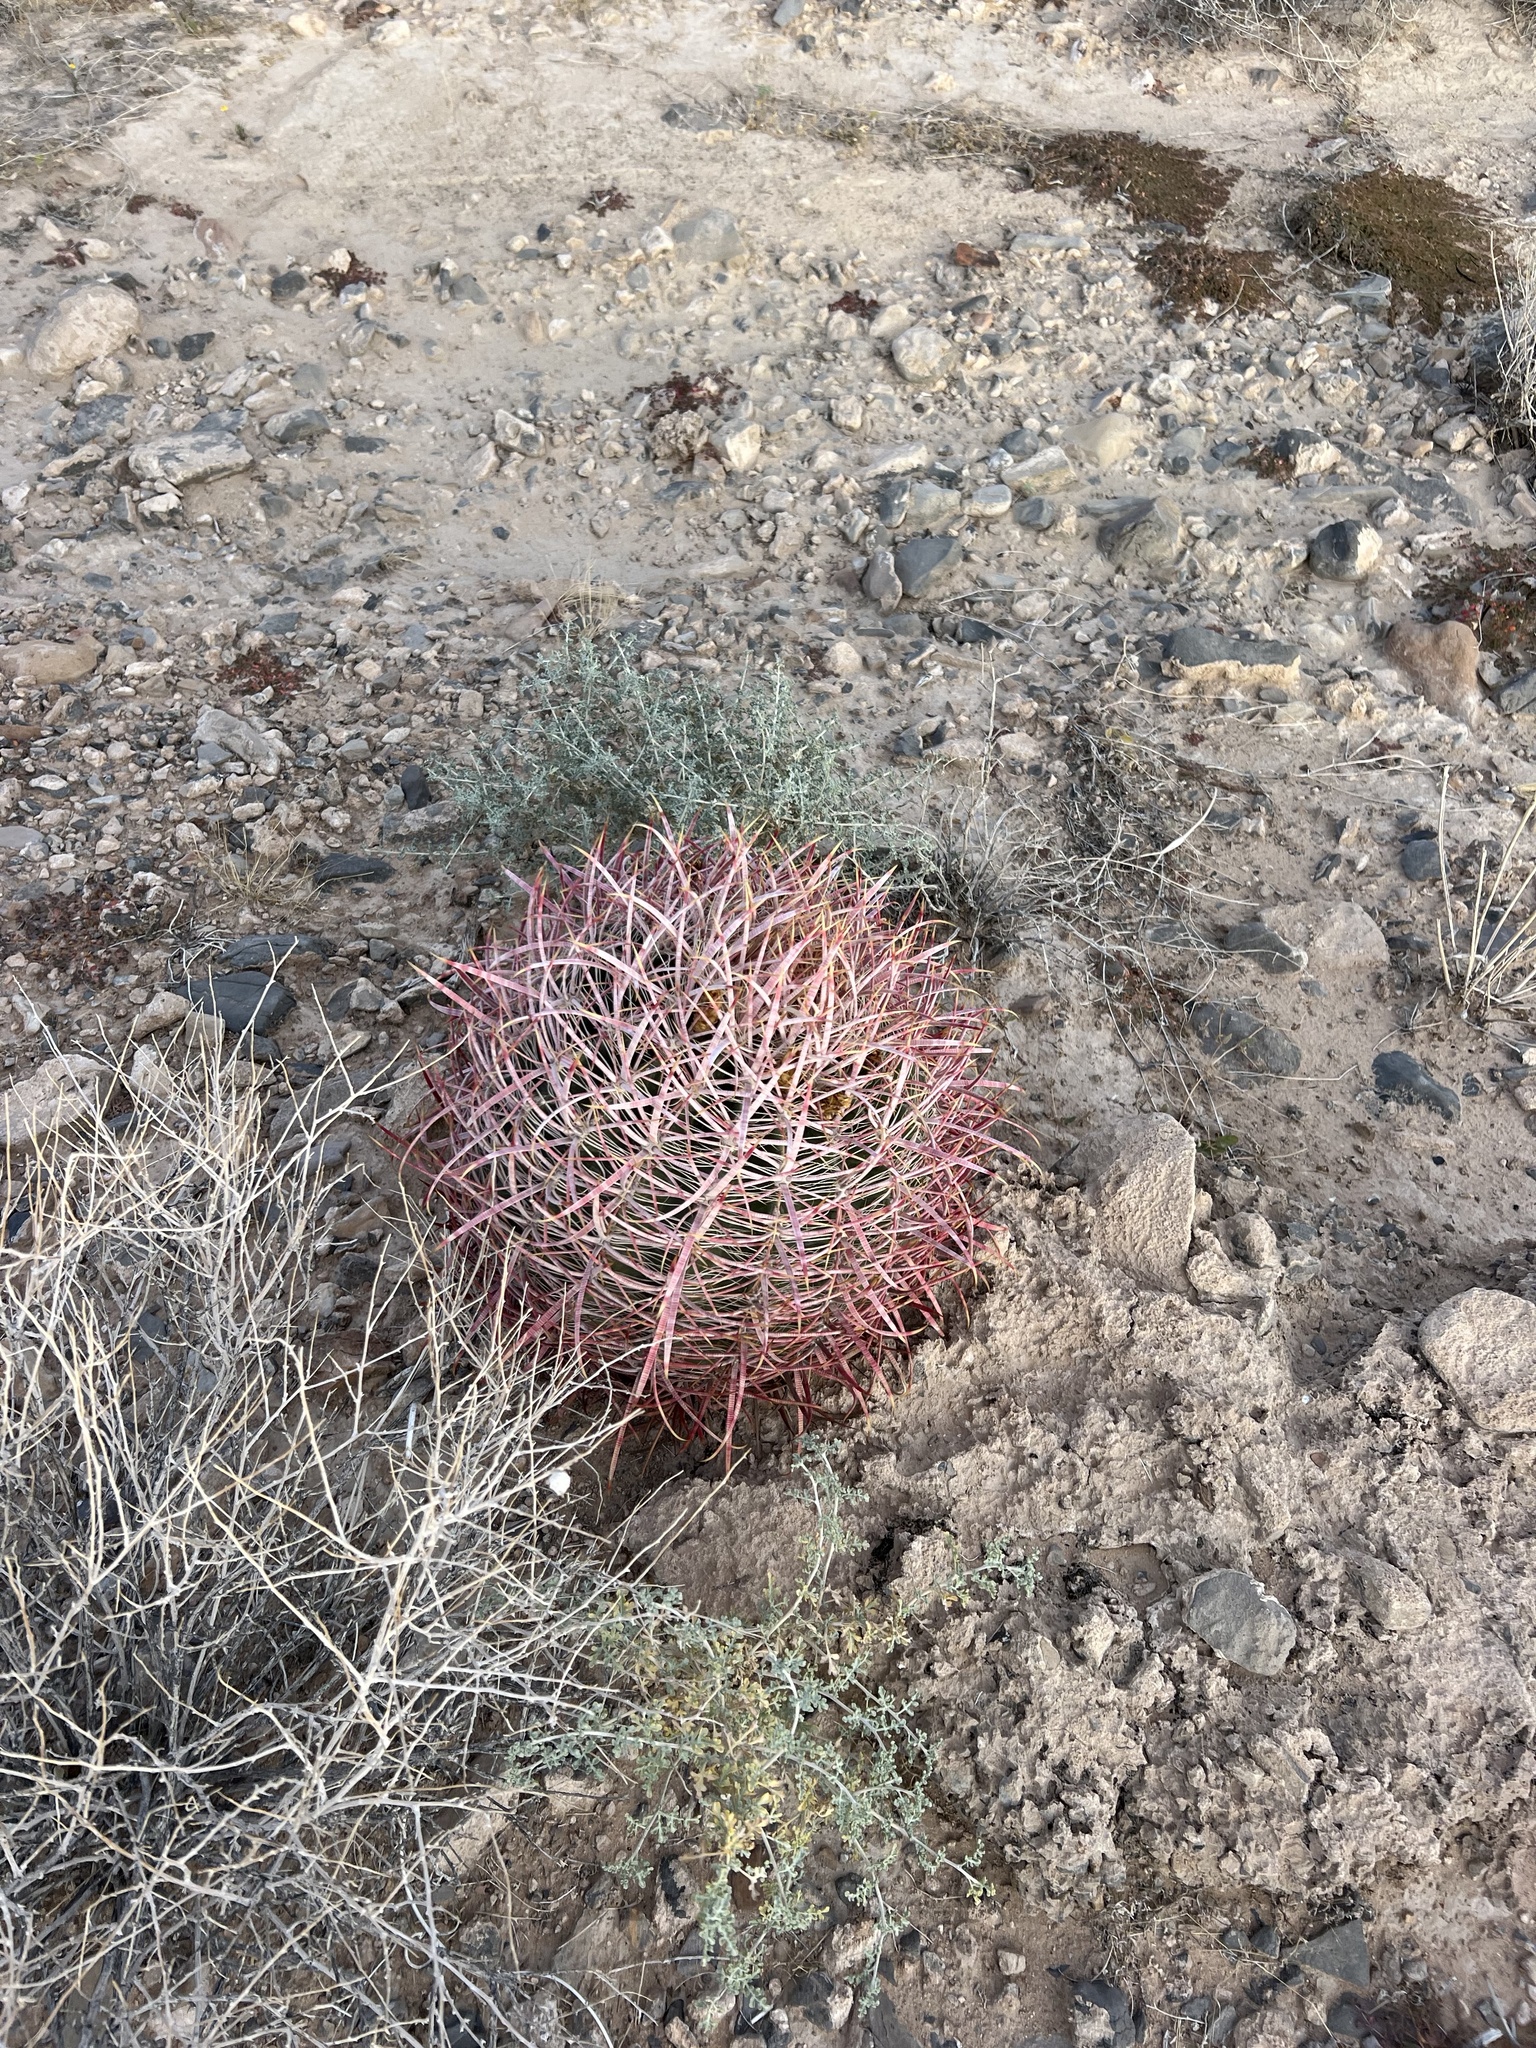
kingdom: Plantae
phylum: Tracheophyta
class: Magnoliopsida
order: Caryophyllales
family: Cactaceae
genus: Ferocactus
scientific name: Ferocactus cylindraceus
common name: California barrel cactus
